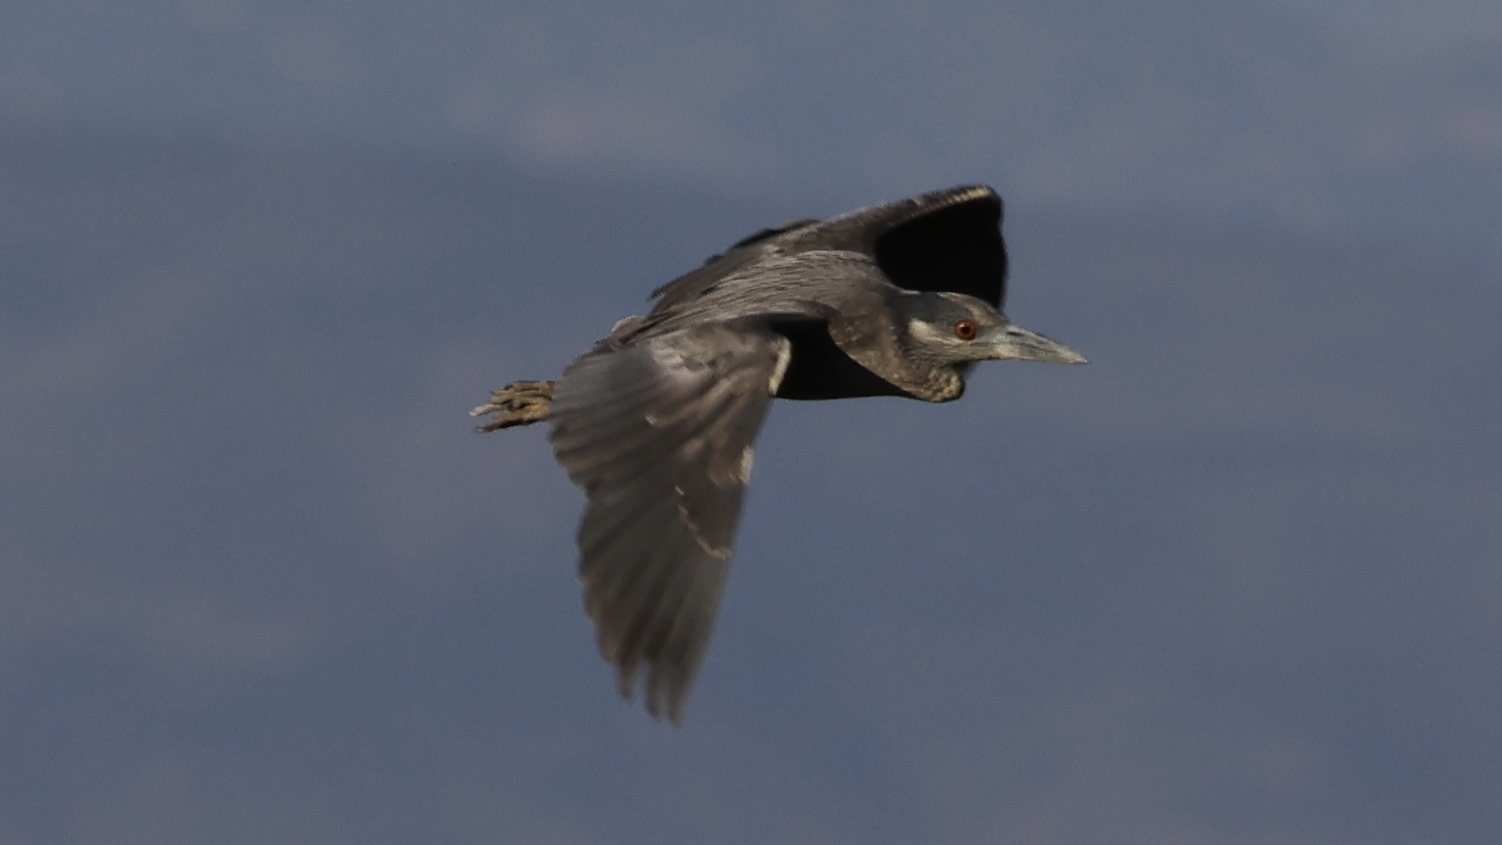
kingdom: Animalia
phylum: Chordata
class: Aves
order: Pelecaniformes
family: Ardeidae
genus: Nyctanassa
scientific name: Nyctanassa violacea
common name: Yellow-crowned night heron
